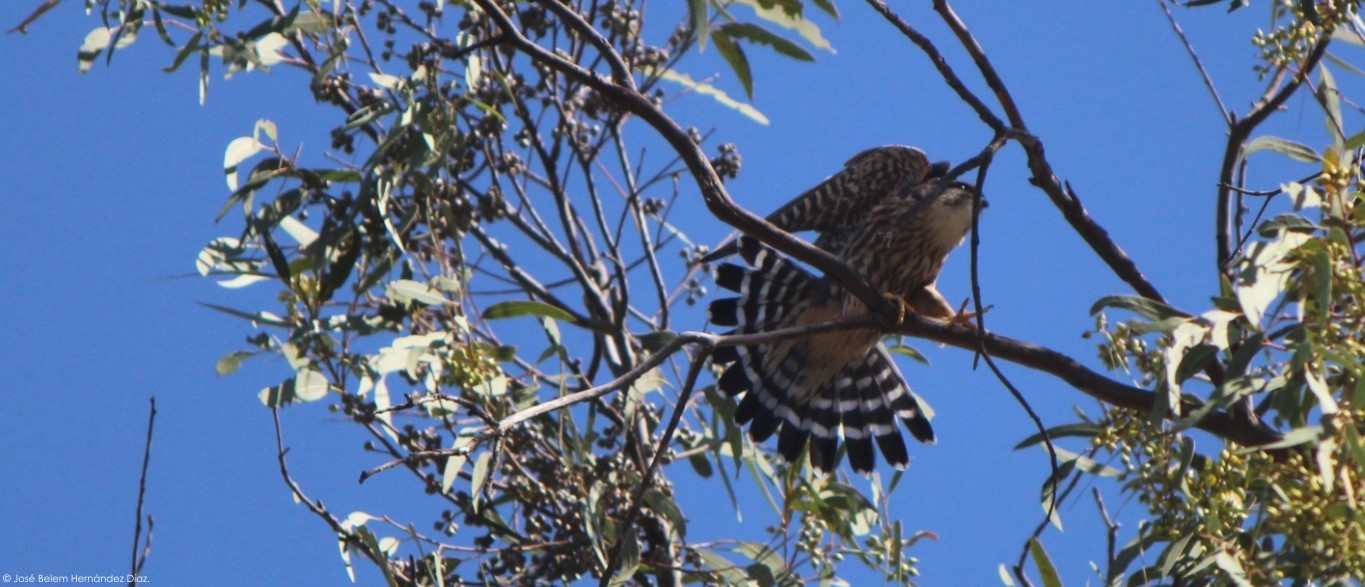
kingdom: Animalia
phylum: Chordata
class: Aves
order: Falconiformes
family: Falconidae
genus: Falco
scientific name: Falco columbarius
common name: Merlin
